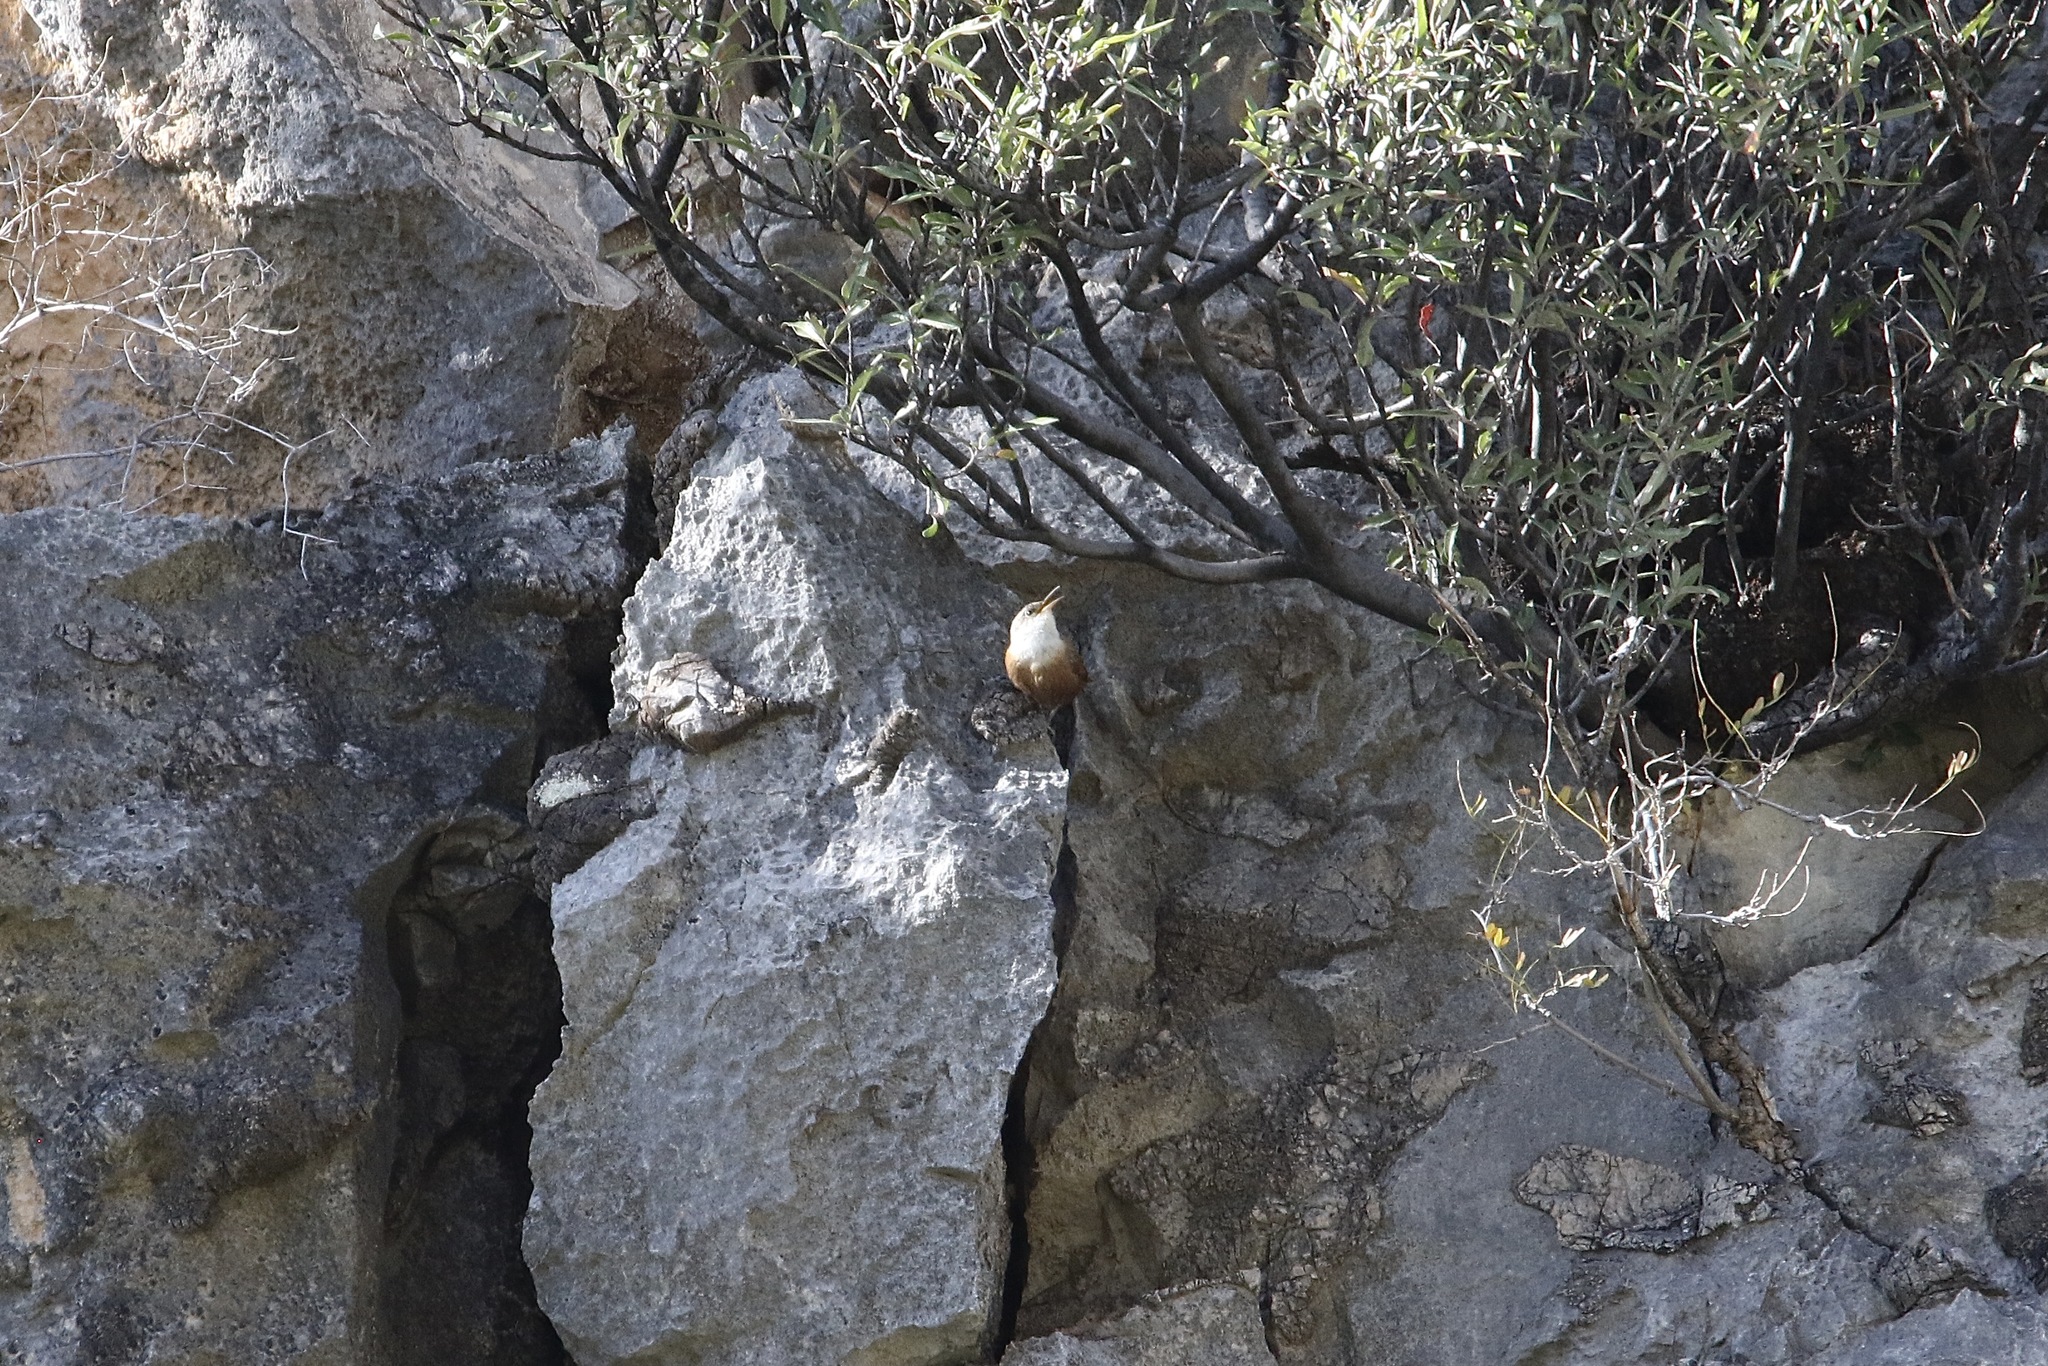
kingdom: Animalia
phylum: Chordata
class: Aves
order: Passeriformes
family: Troglodytidae
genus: Catherpes
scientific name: Catherpes mexicanus
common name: Canyon wren
